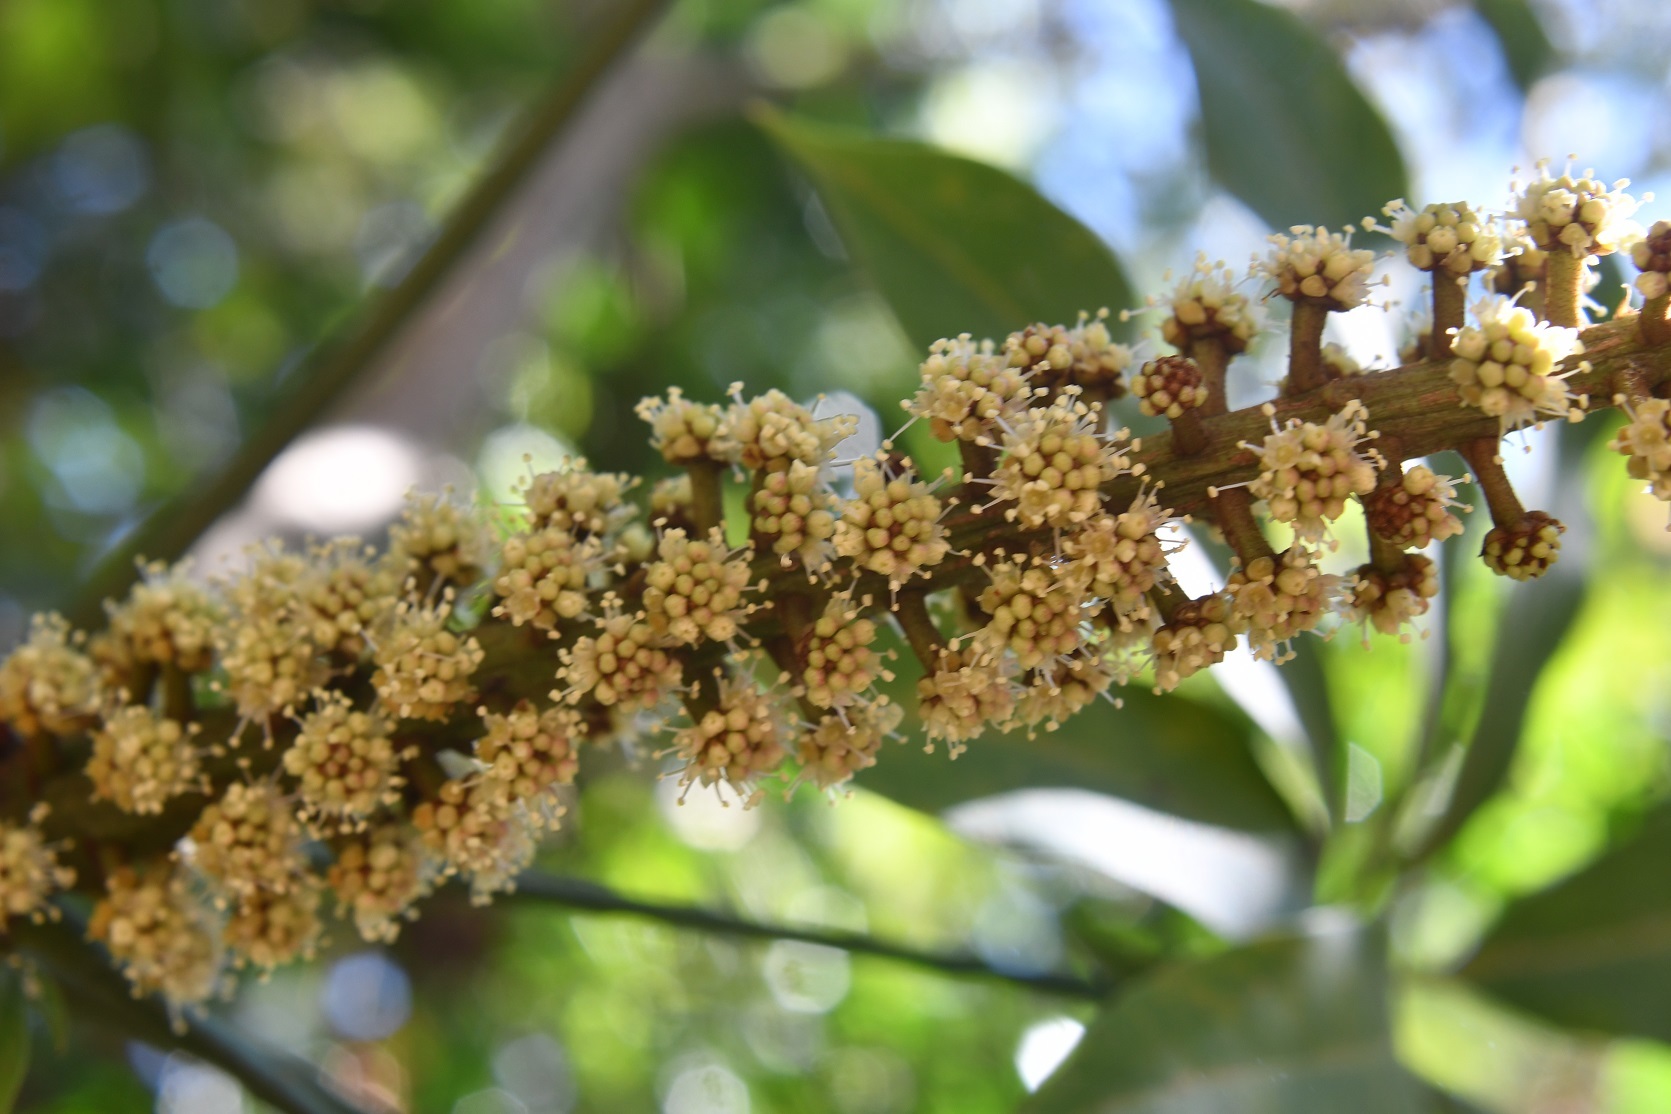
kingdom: Plantae
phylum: Tracheophyta
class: Magnoliopsida
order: Apiales
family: Araliaceae
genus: Oreopanax
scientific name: Oreopanax xalapensis
